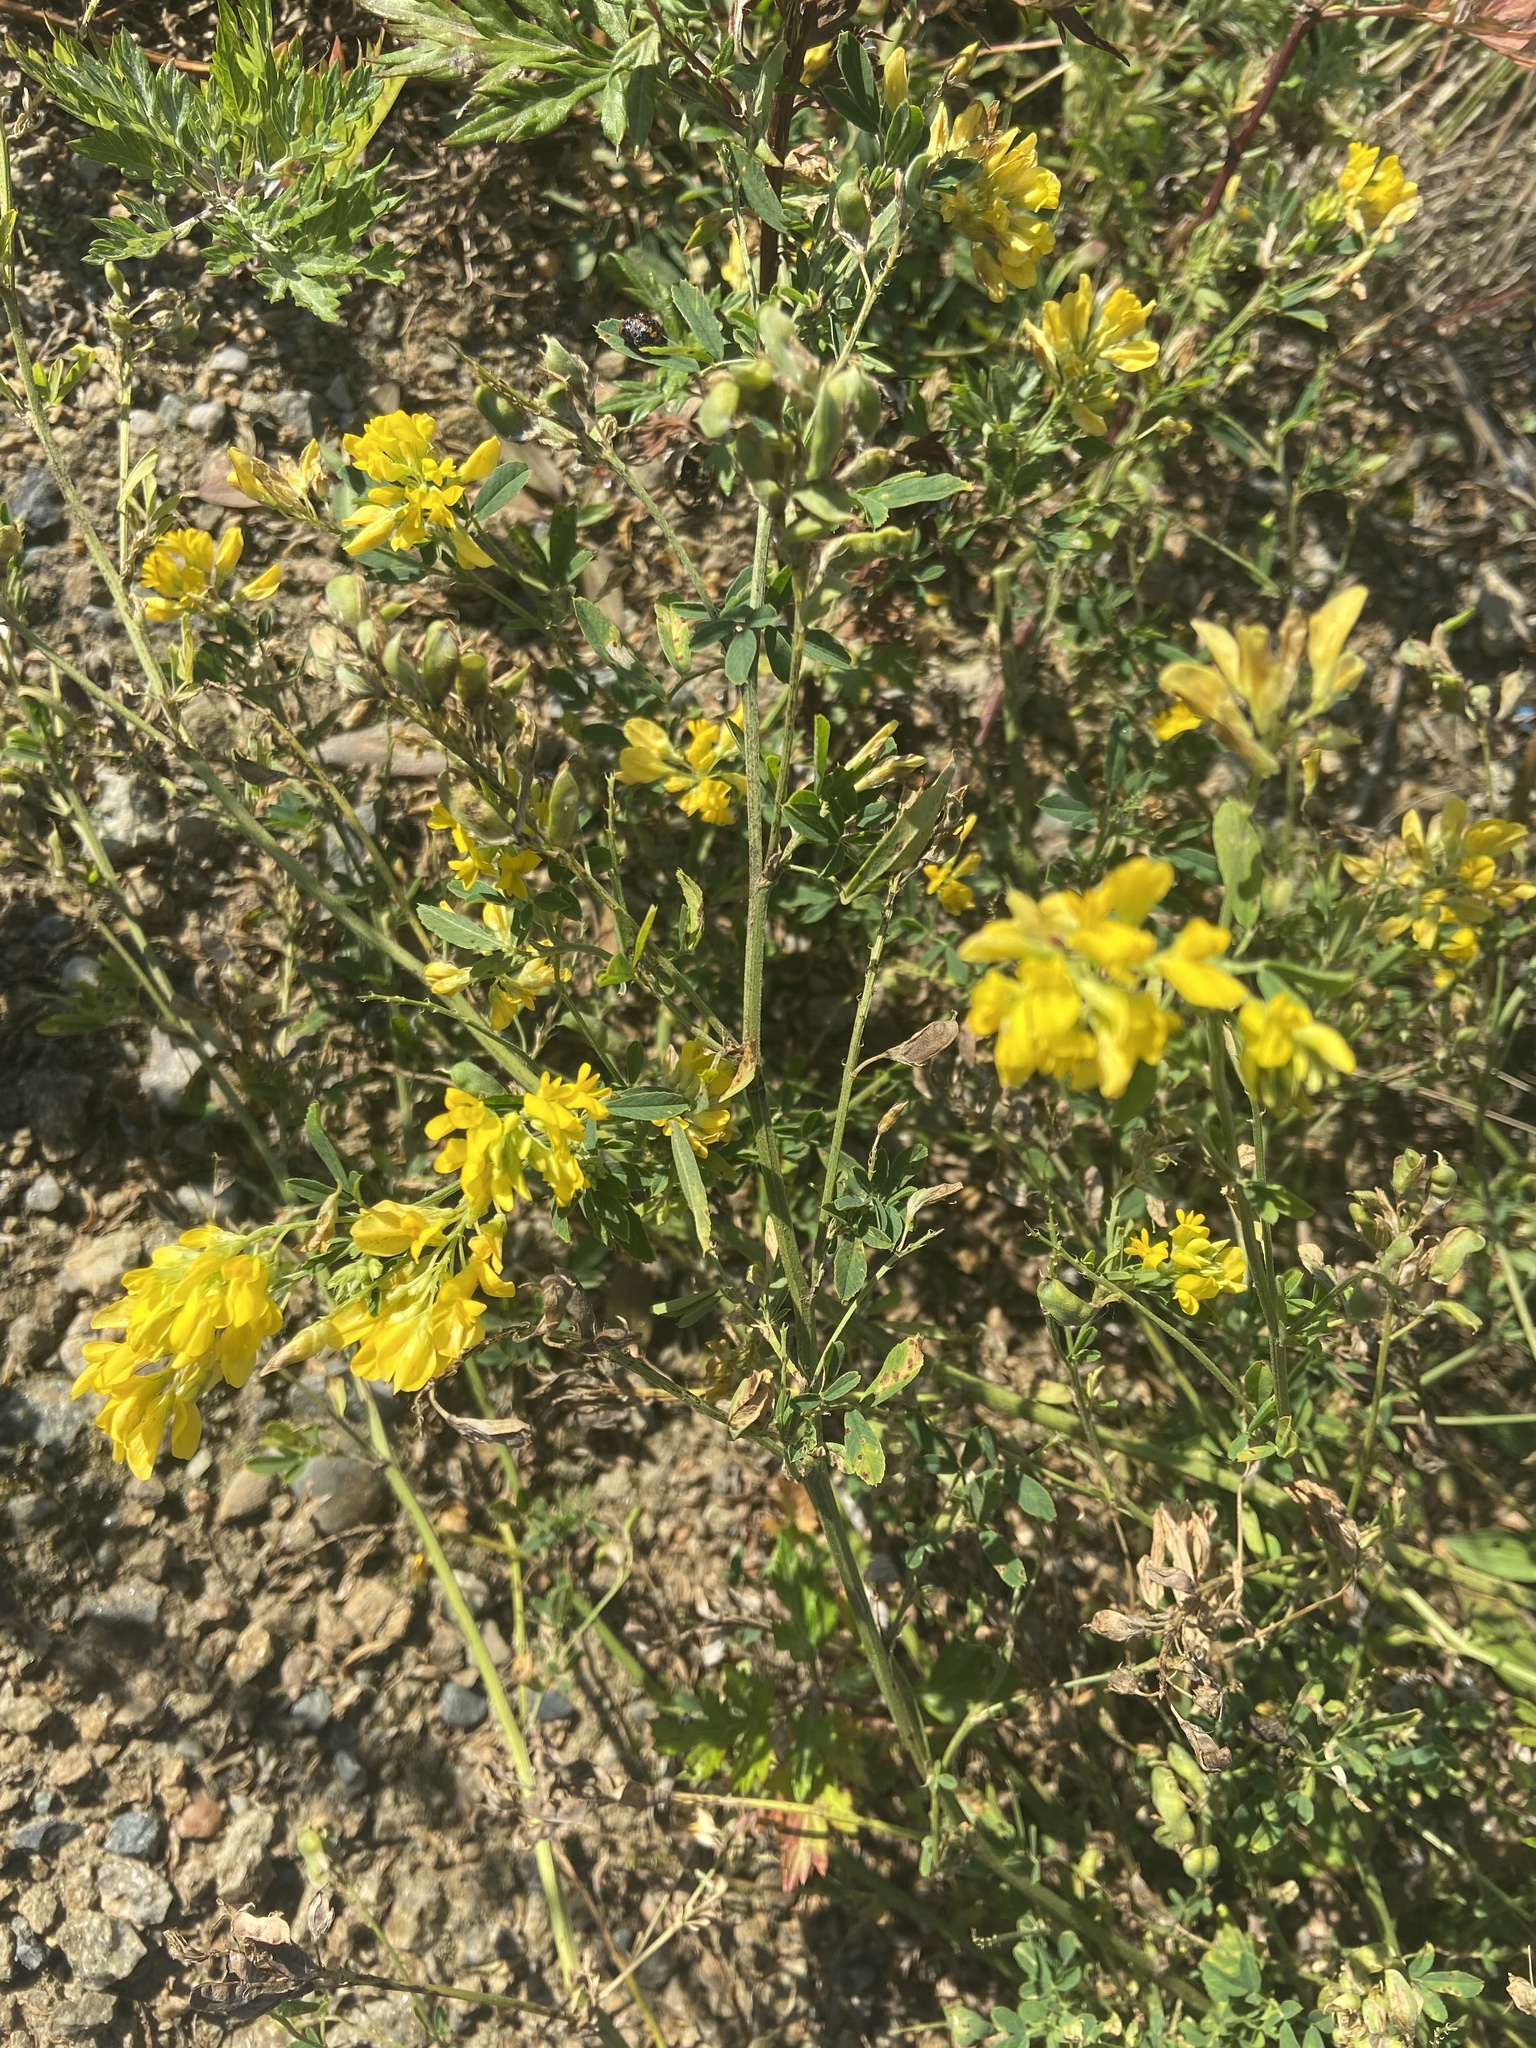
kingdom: Plantae
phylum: Tracheophyta
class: Magnoliopsida
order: Fabales
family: Fabaceae
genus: Medicago
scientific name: Medicago falcata
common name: Sickle medick
